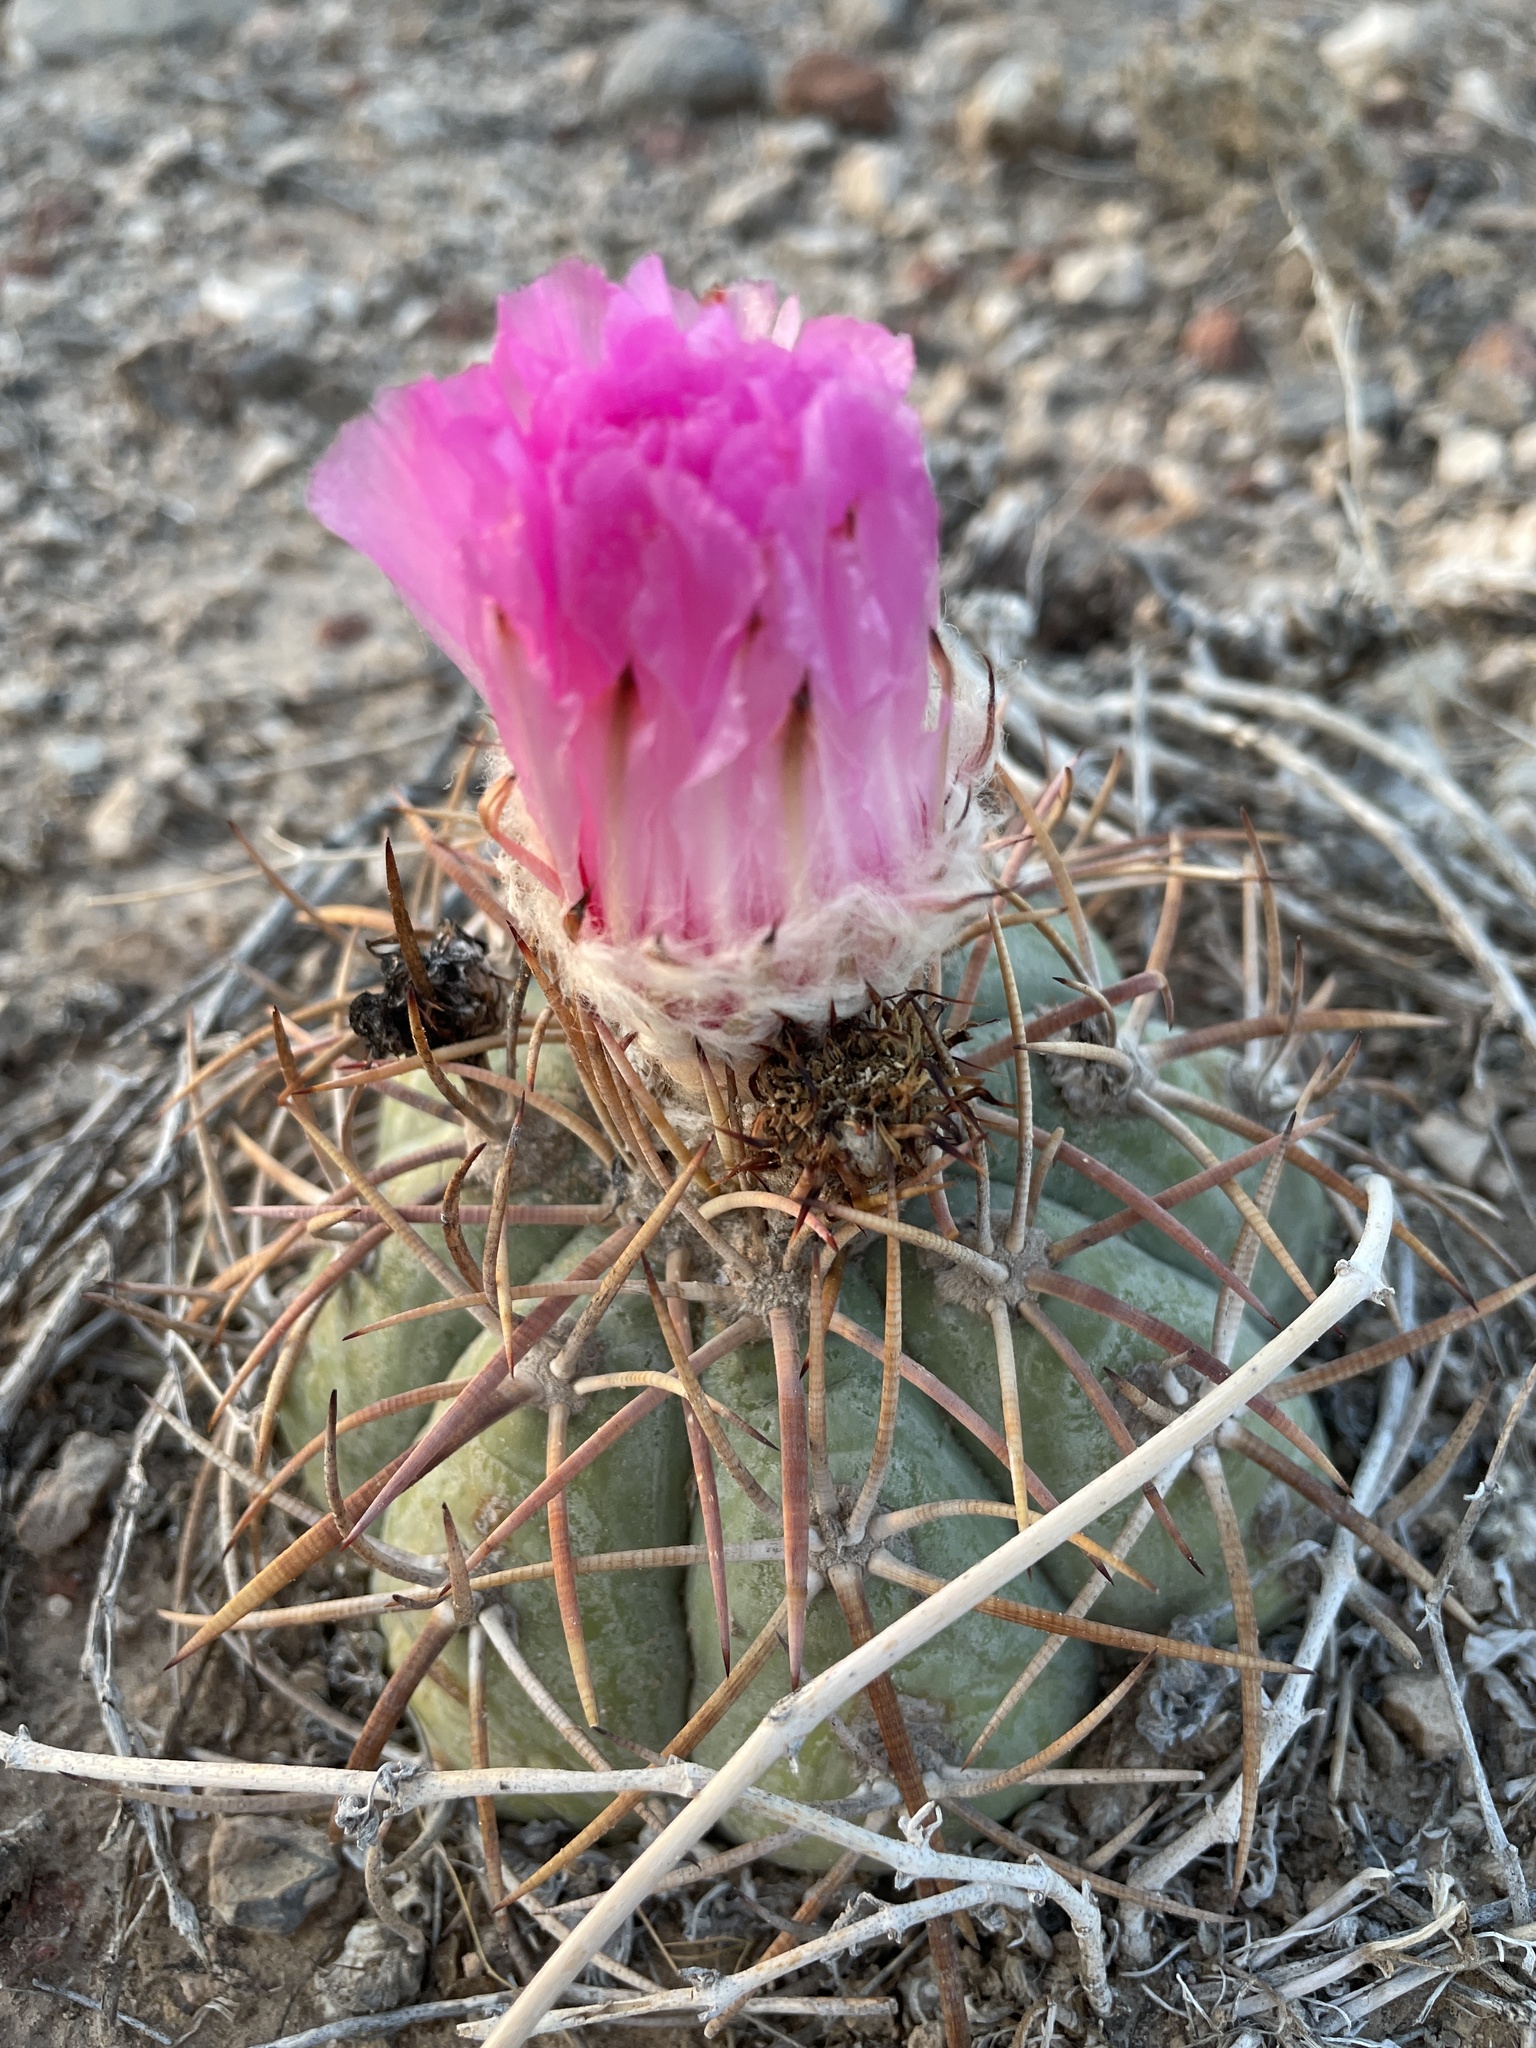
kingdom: Plantae
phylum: Tracheophyta
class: Magnoliopsida
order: Caryophyllales
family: Cactaceae
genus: Echinocactus
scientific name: Echinocactus horizonthalonius
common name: Devilshead
